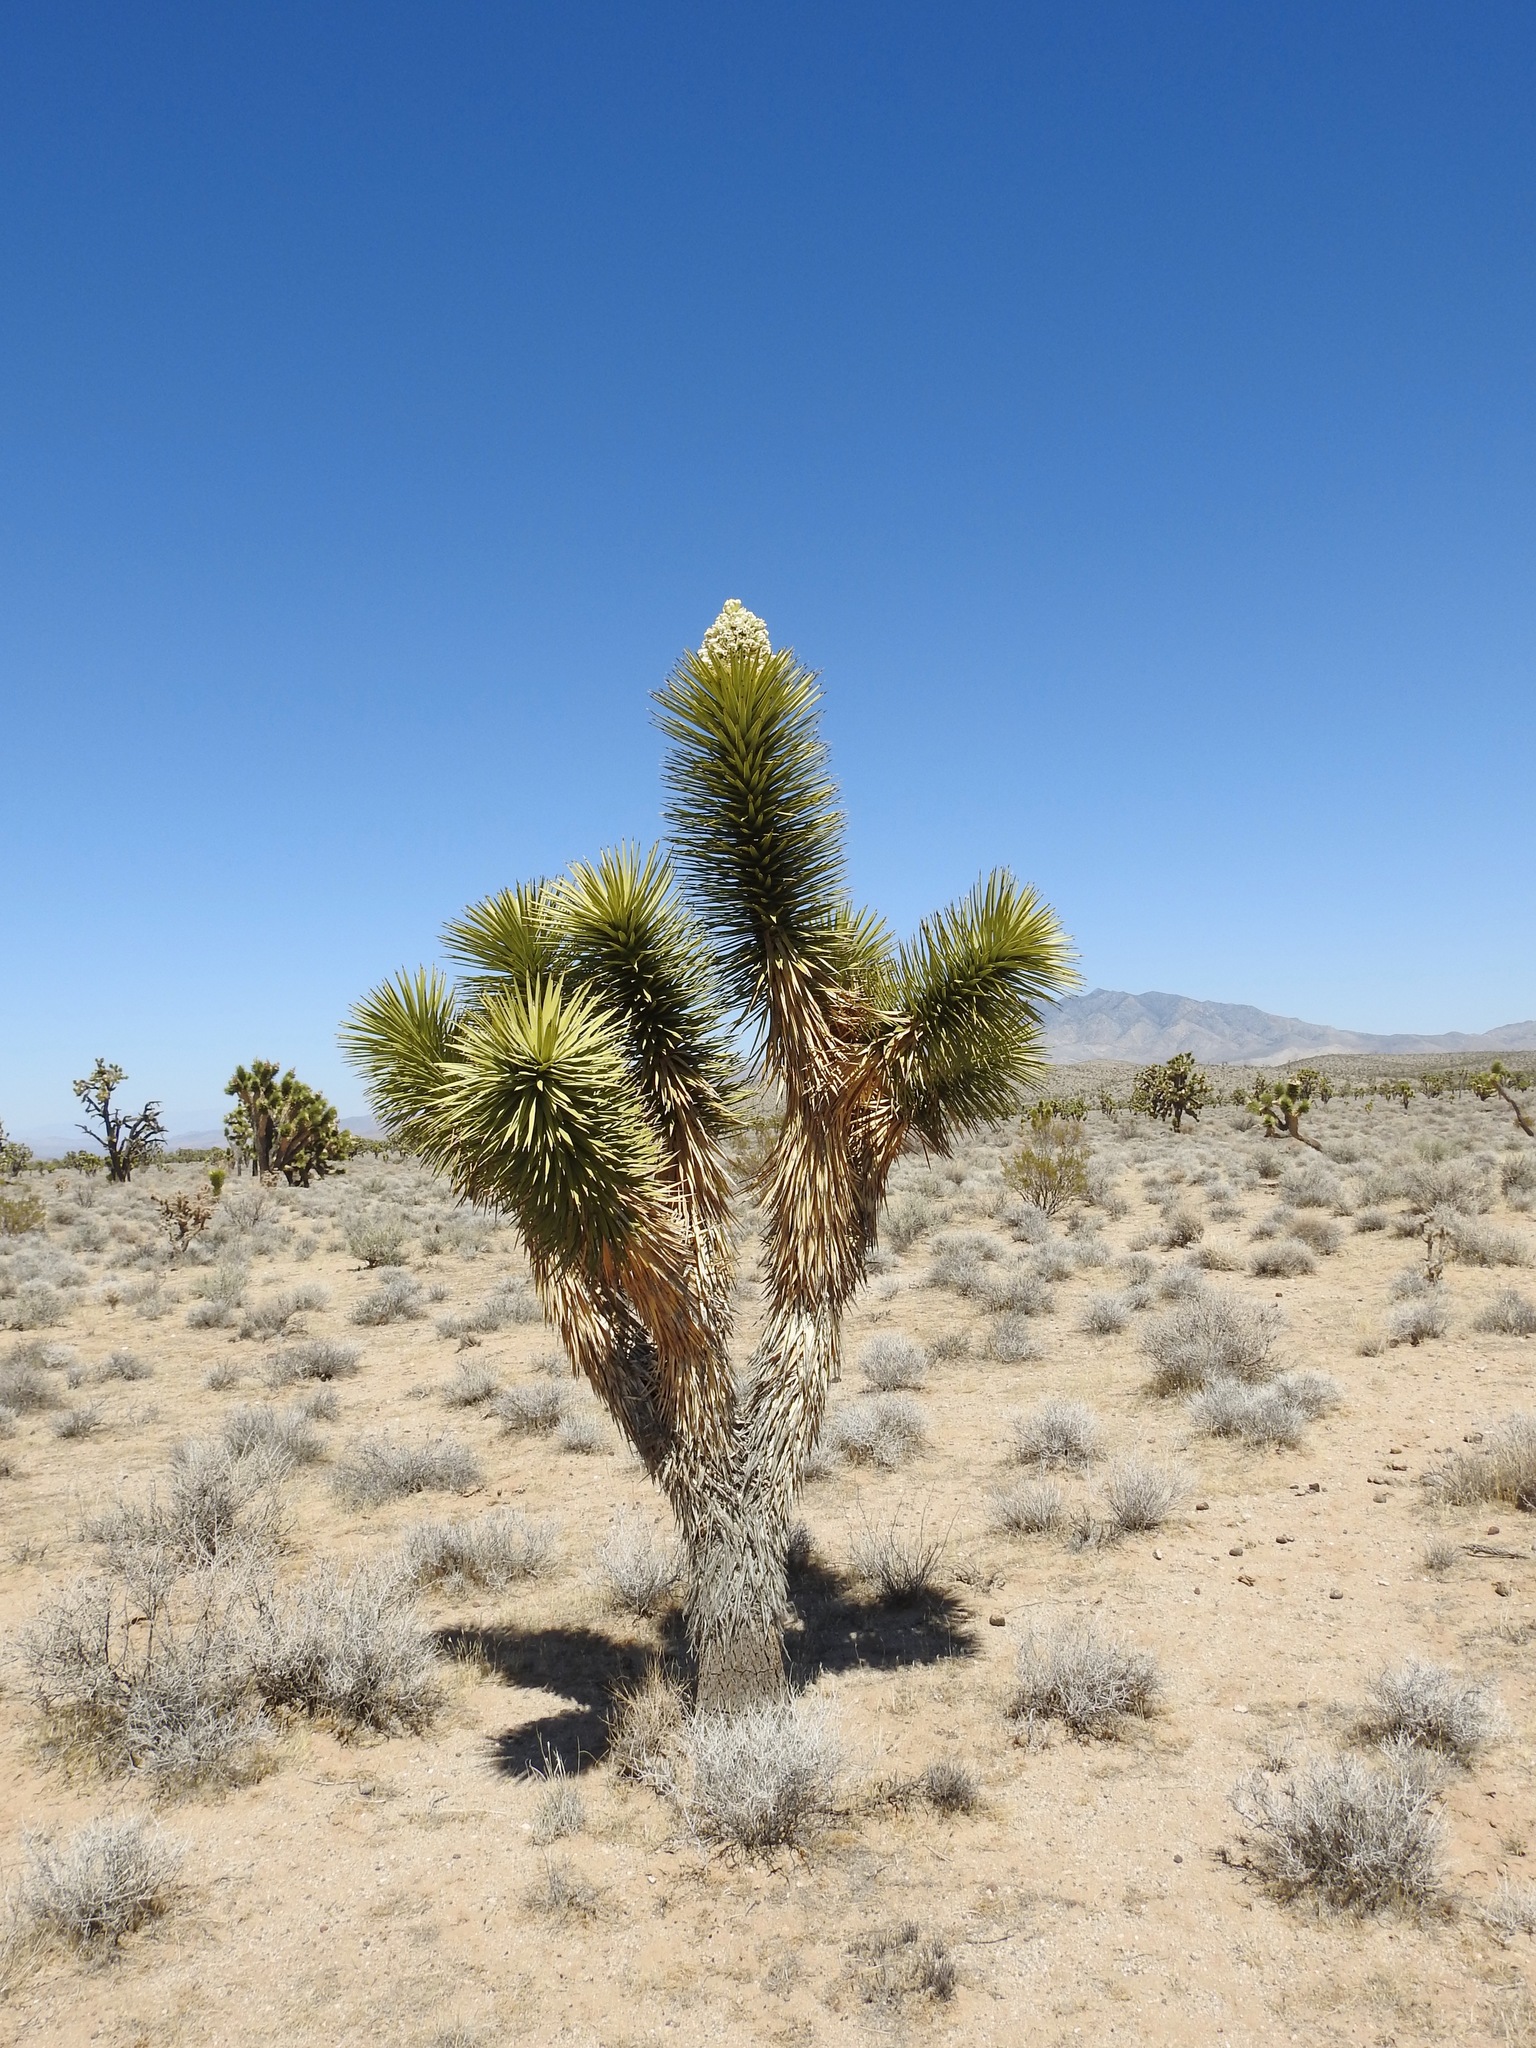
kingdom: Plantae
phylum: Tracheophyta
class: Liliopsida
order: Asparagales
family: Asparagaceae
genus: Yucca
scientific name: Yucca brevifolia
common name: Joshua tree
